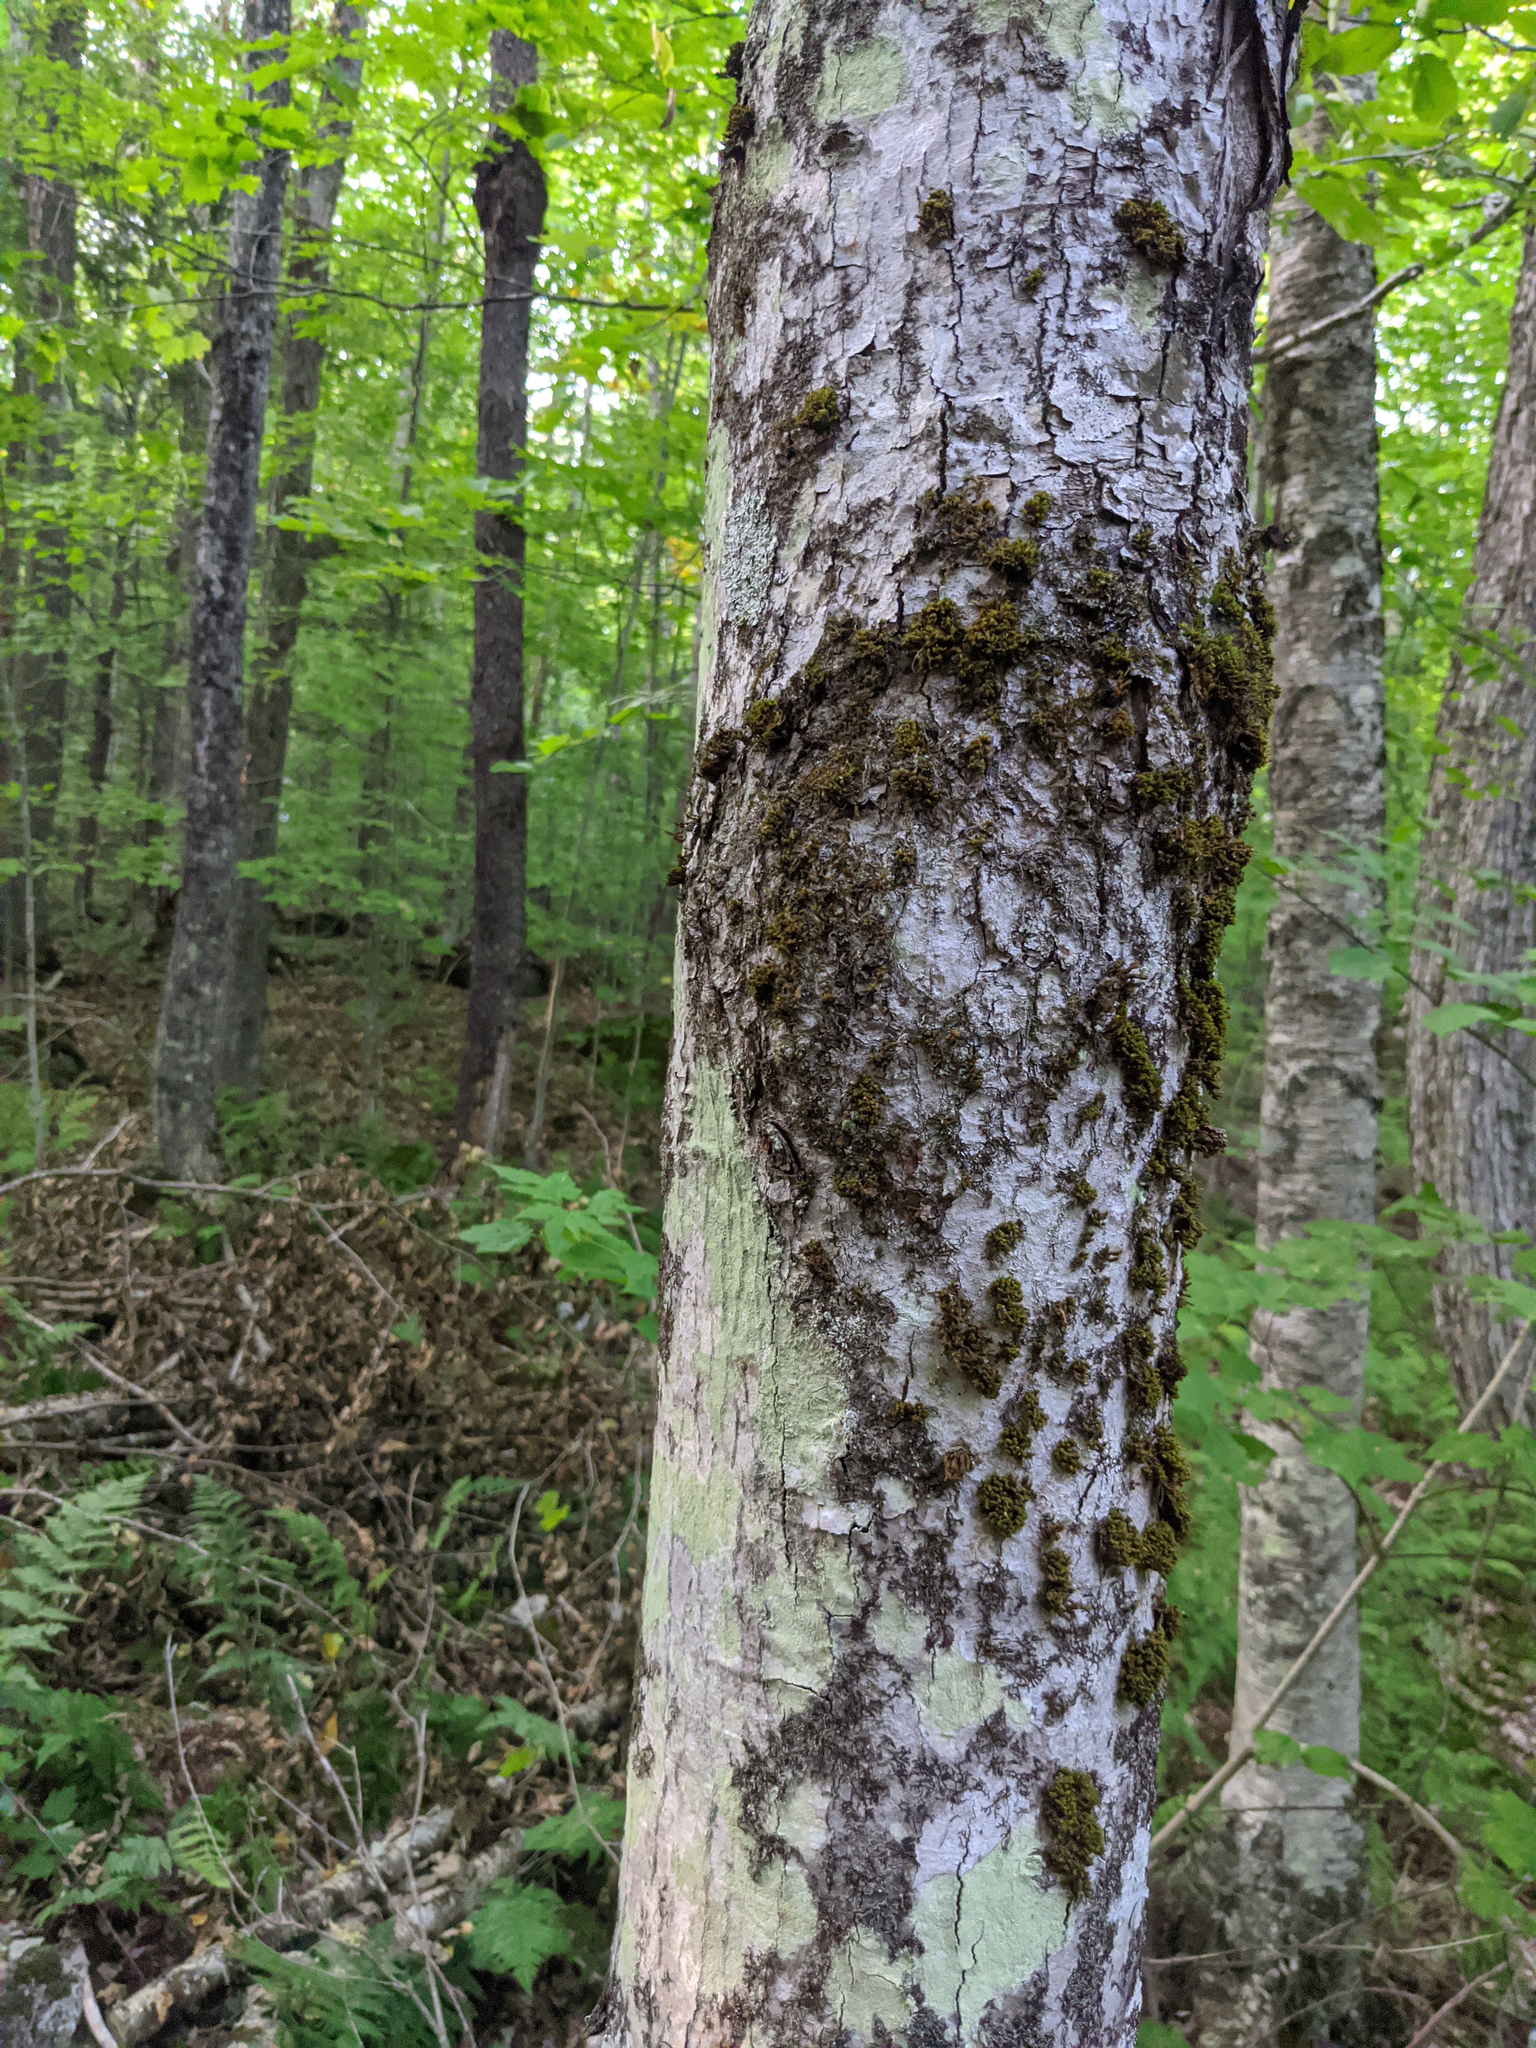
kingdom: Plantae
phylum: Bryophyta
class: Bryopsida
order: Orthotrichales
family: Orthotrichaceae
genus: Ulota
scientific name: Ulota crispa
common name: Crisped pincushion moss
